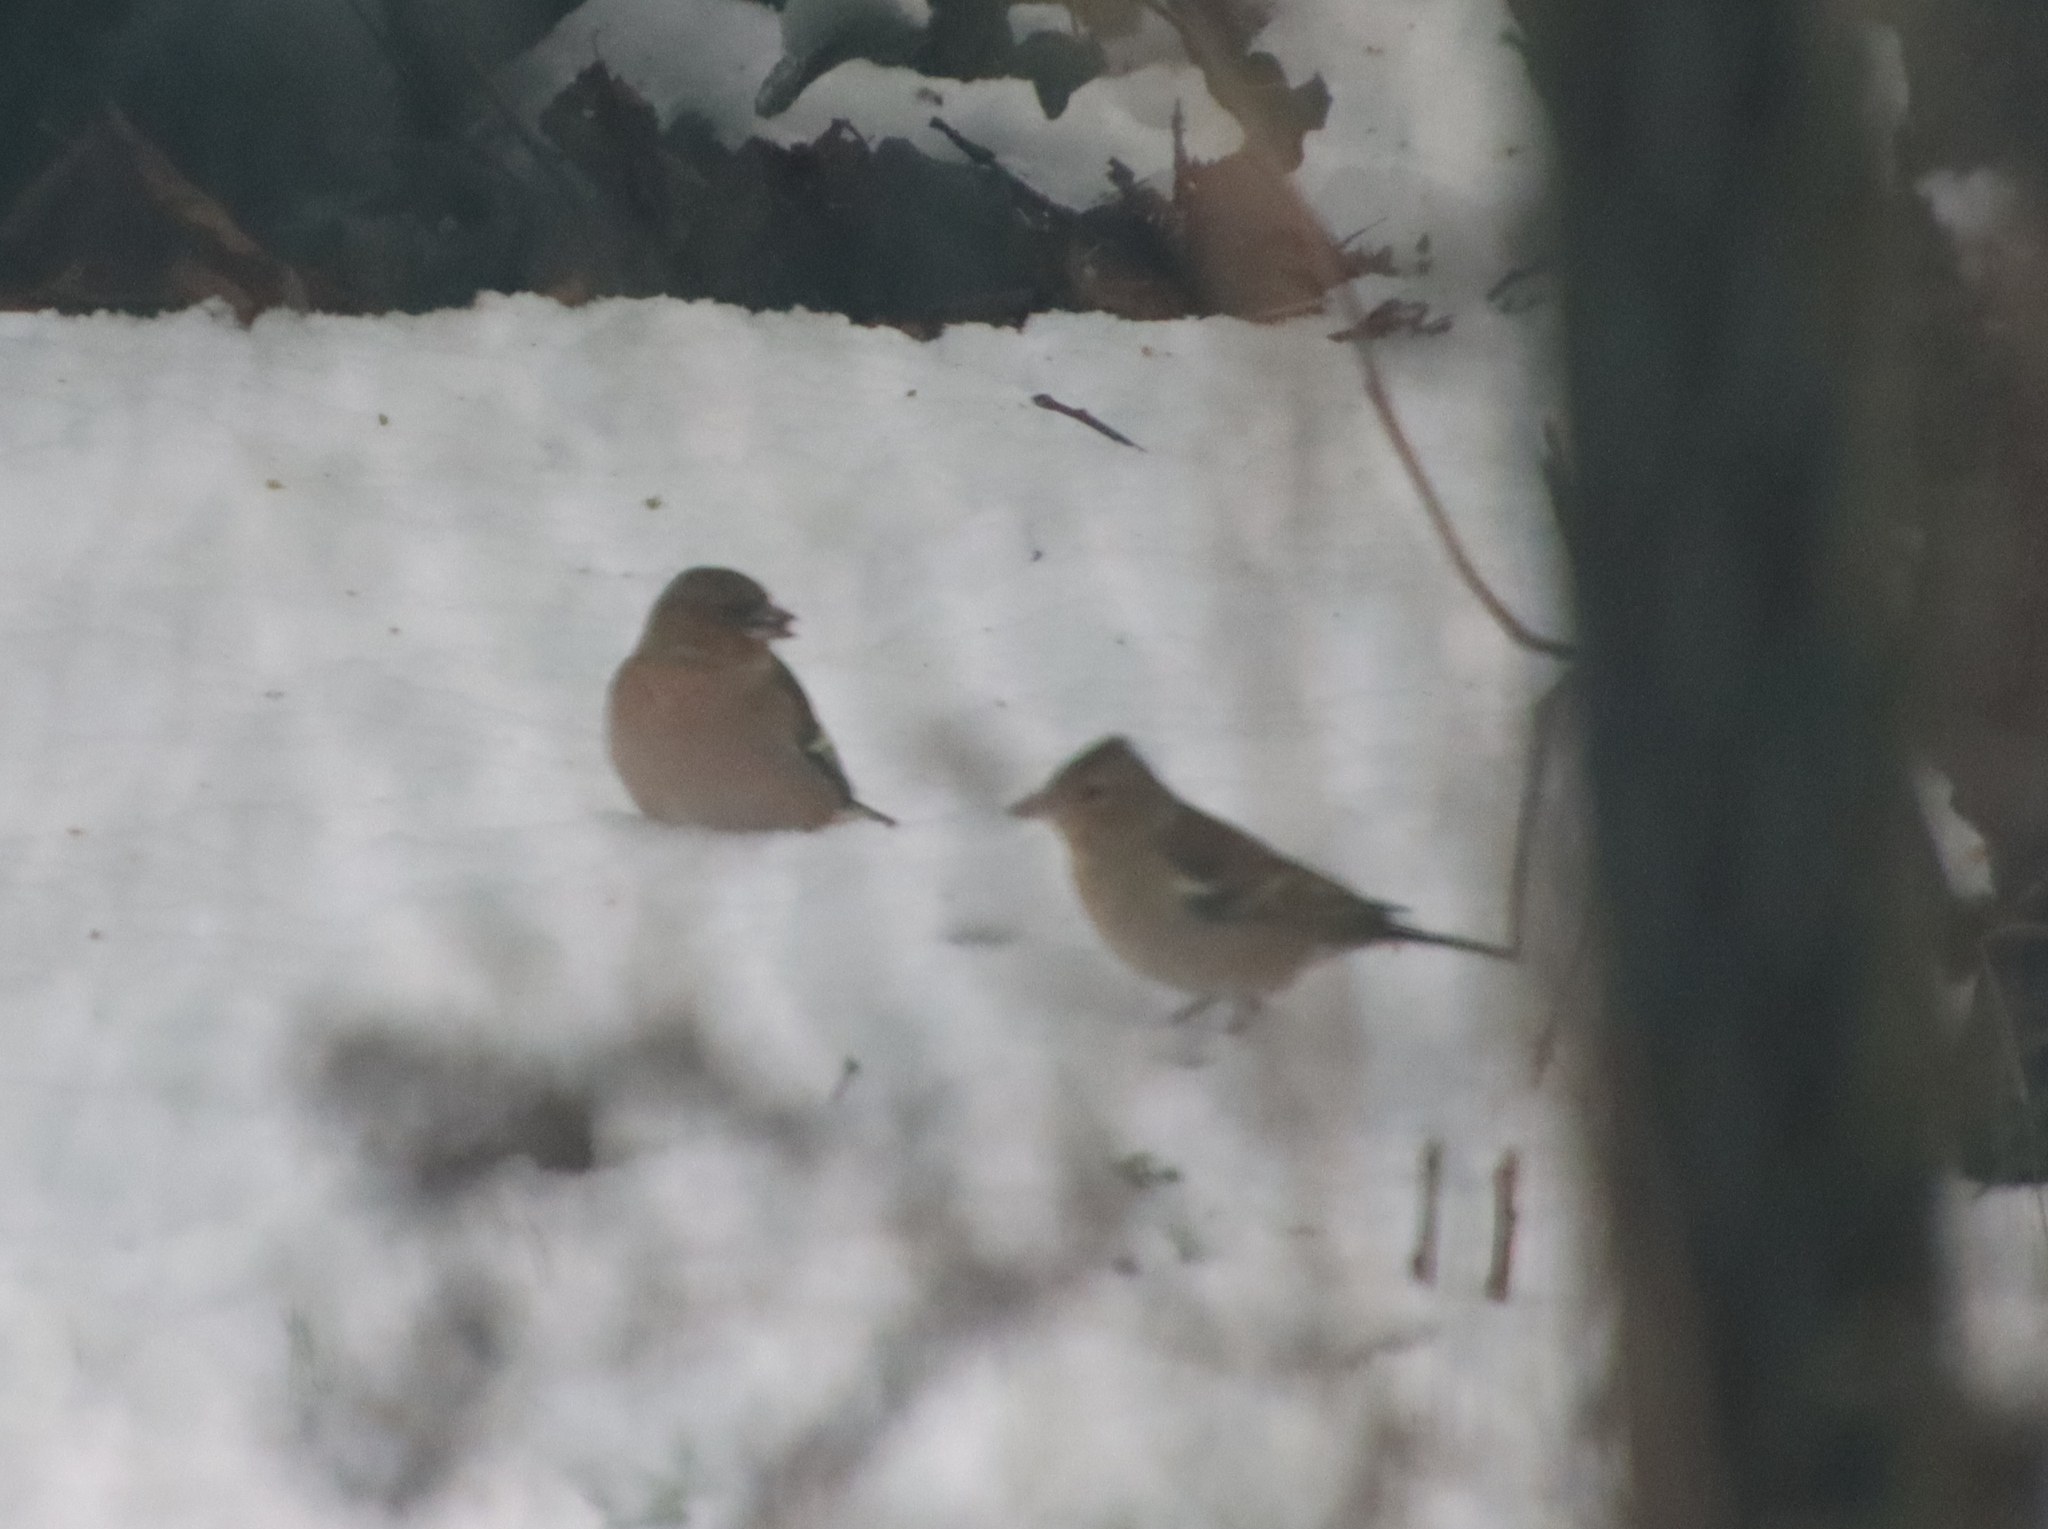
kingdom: Animalia
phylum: Chordata
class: Aves
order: Passeriformes
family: Fringillidae
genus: Fringilla
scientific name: Fringilla coelebs
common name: Common chaffinch
